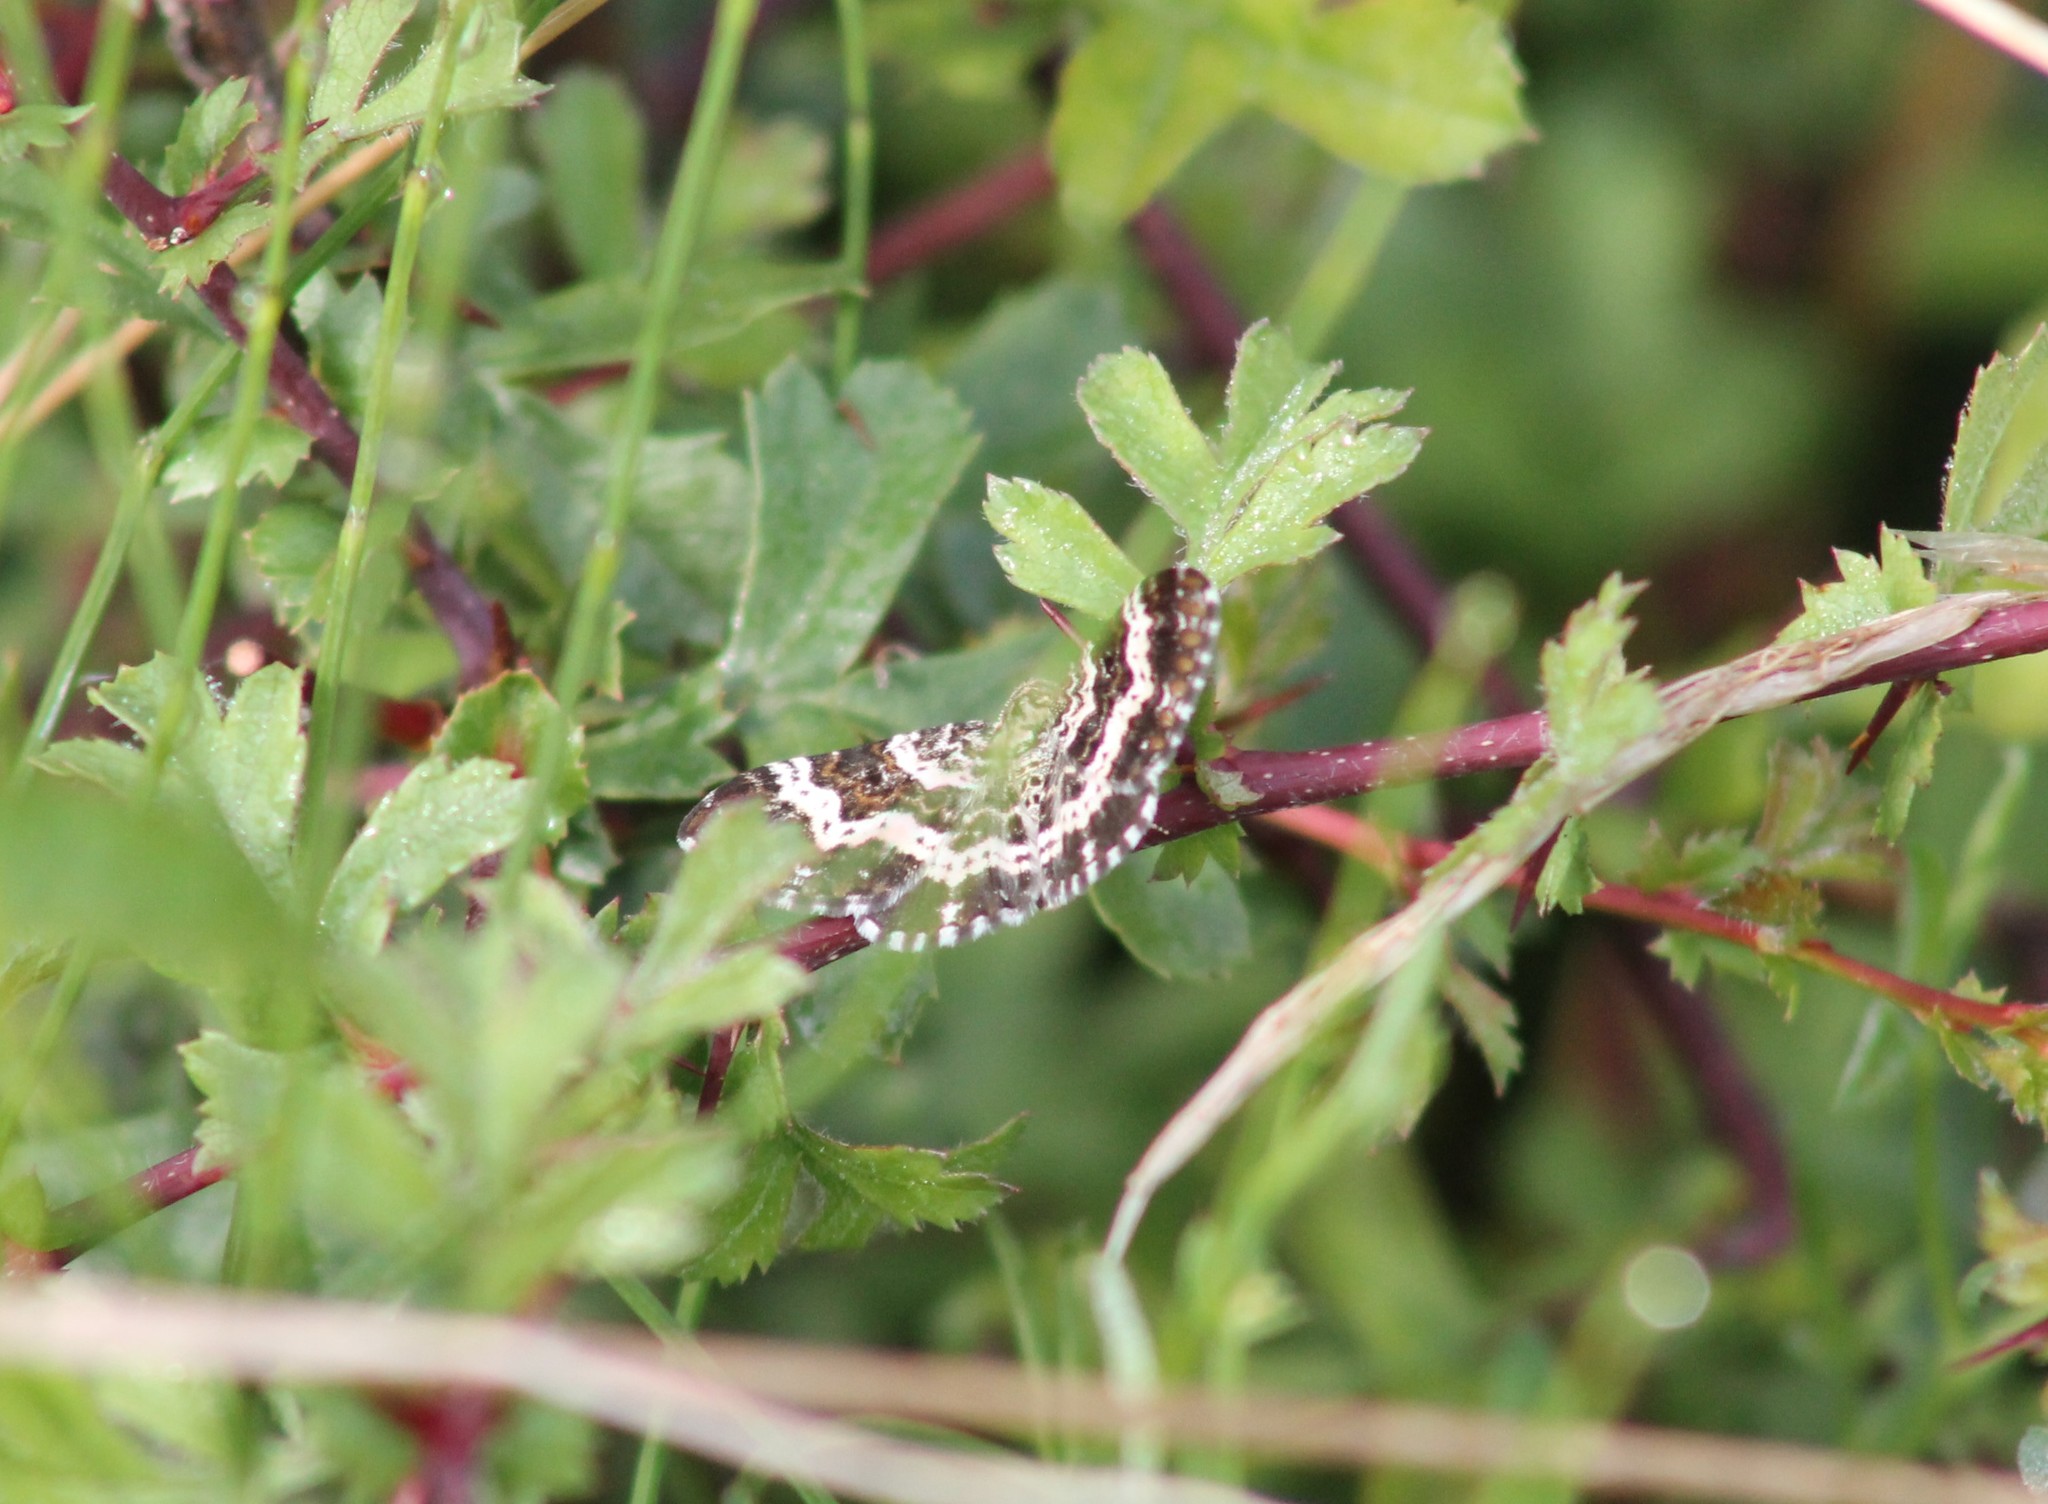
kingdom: Animalia
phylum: Arthropoda
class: Insecta
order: Lepidoptera
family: Geometridae
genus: Epirrhoe
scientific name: Epirrhoe tristata
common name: Small argent & sable
